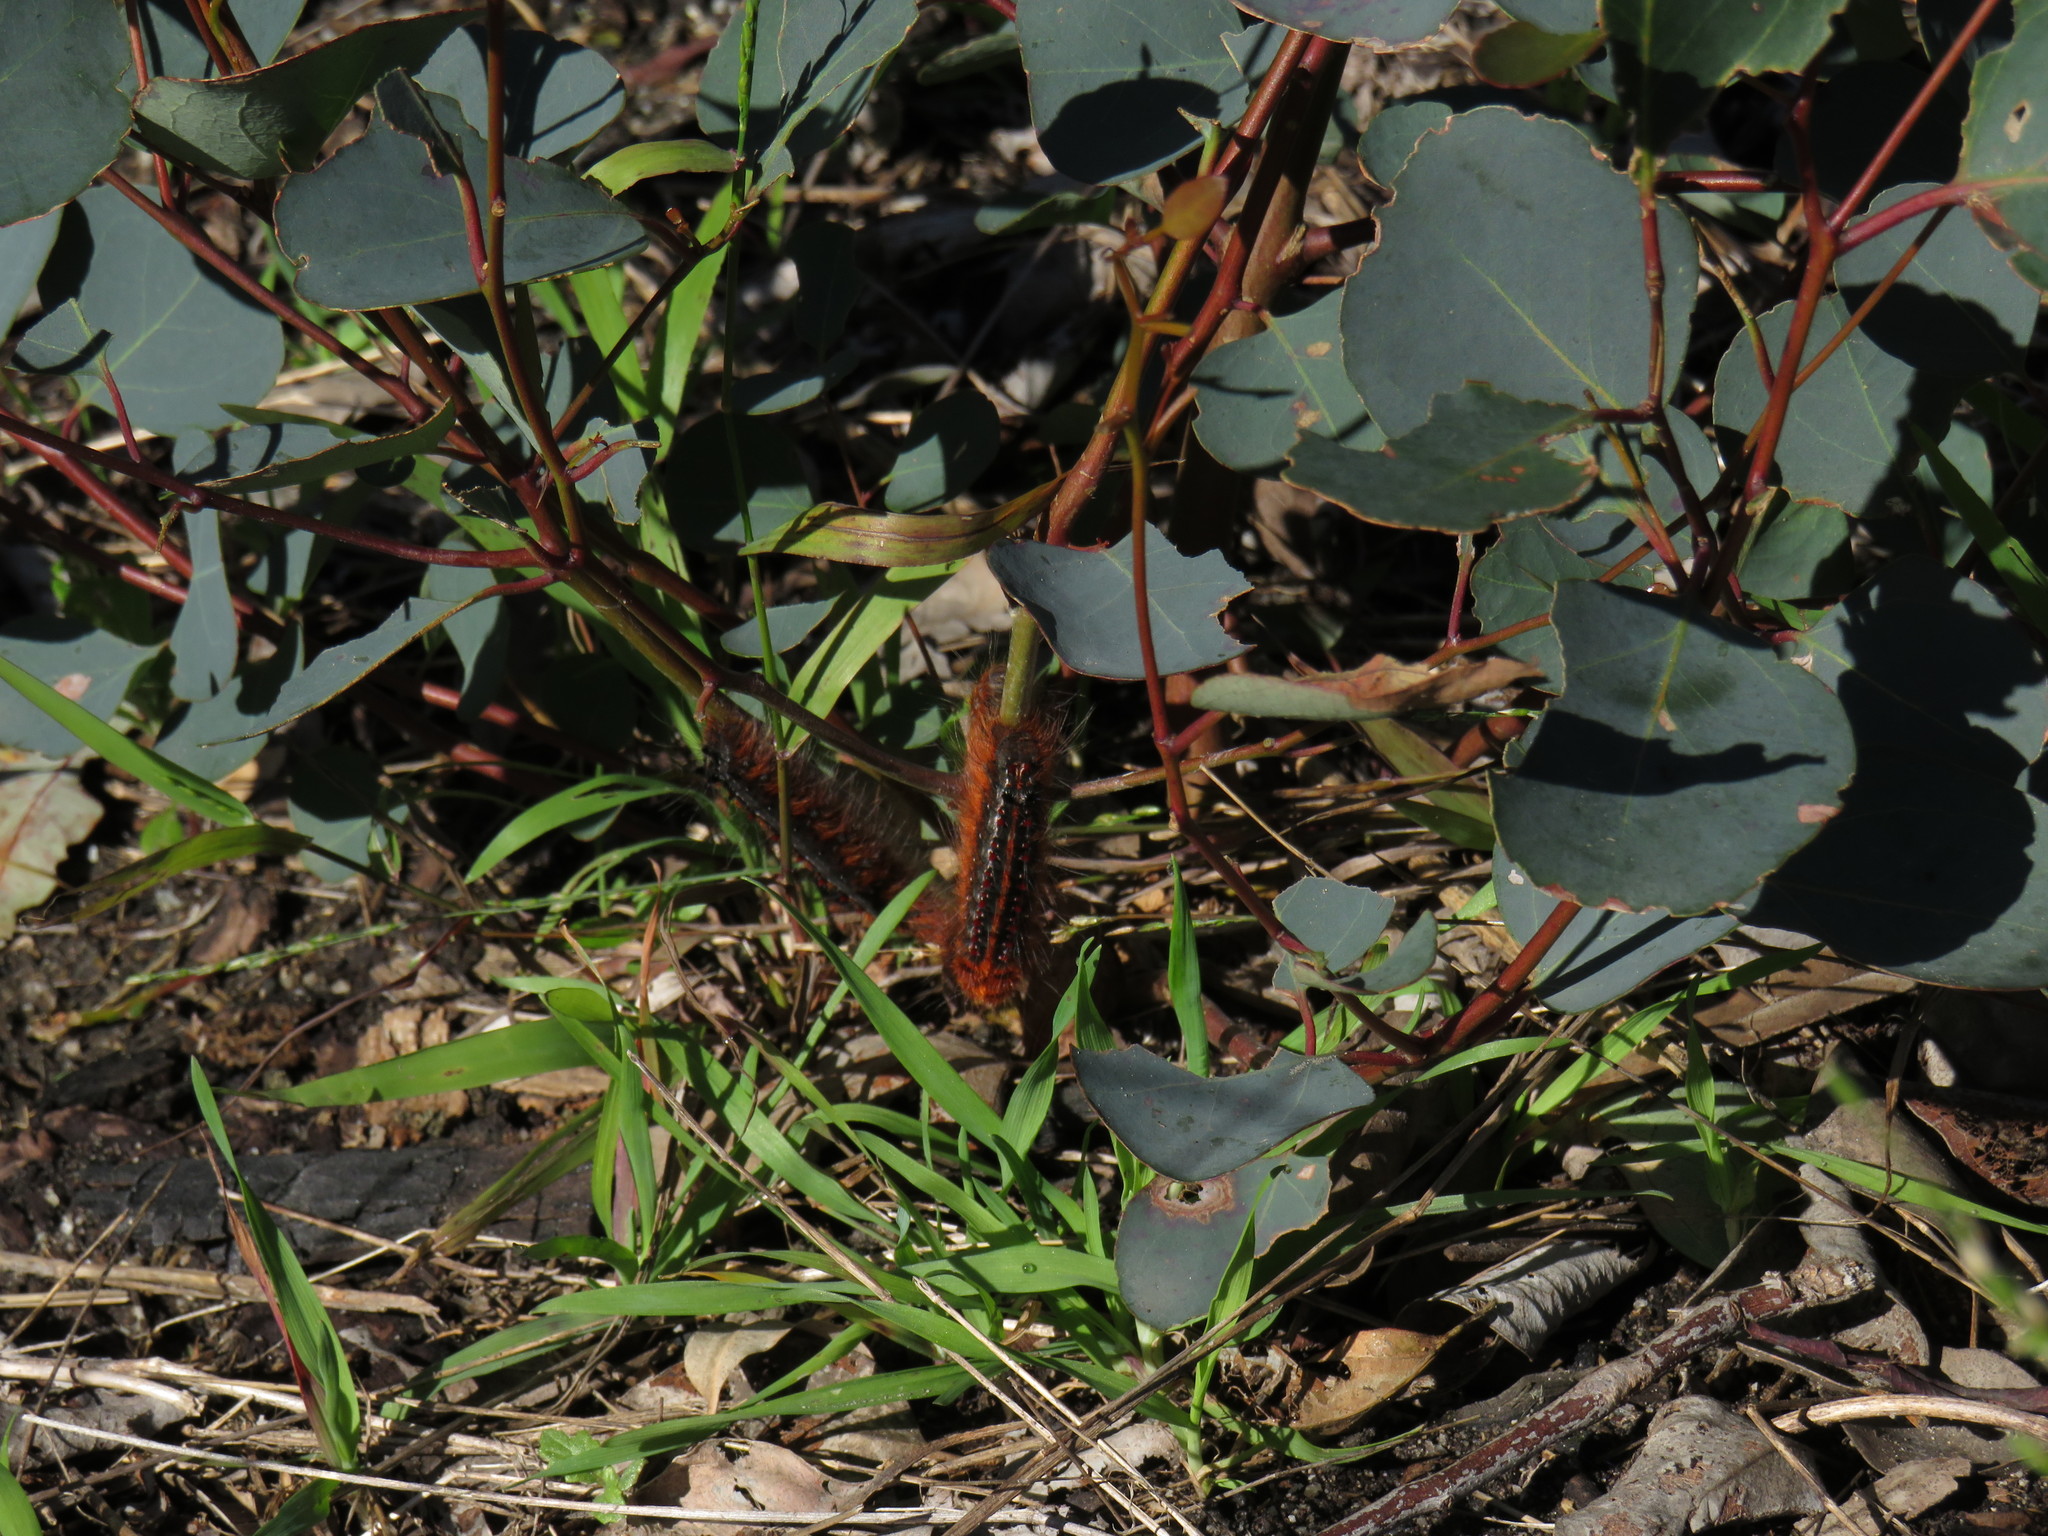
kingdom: Animalia
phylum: Arthropoda
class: Insecta
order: Lepidoptera
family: Lasiocampidae
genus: Streblote
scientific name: Streblote cristata
